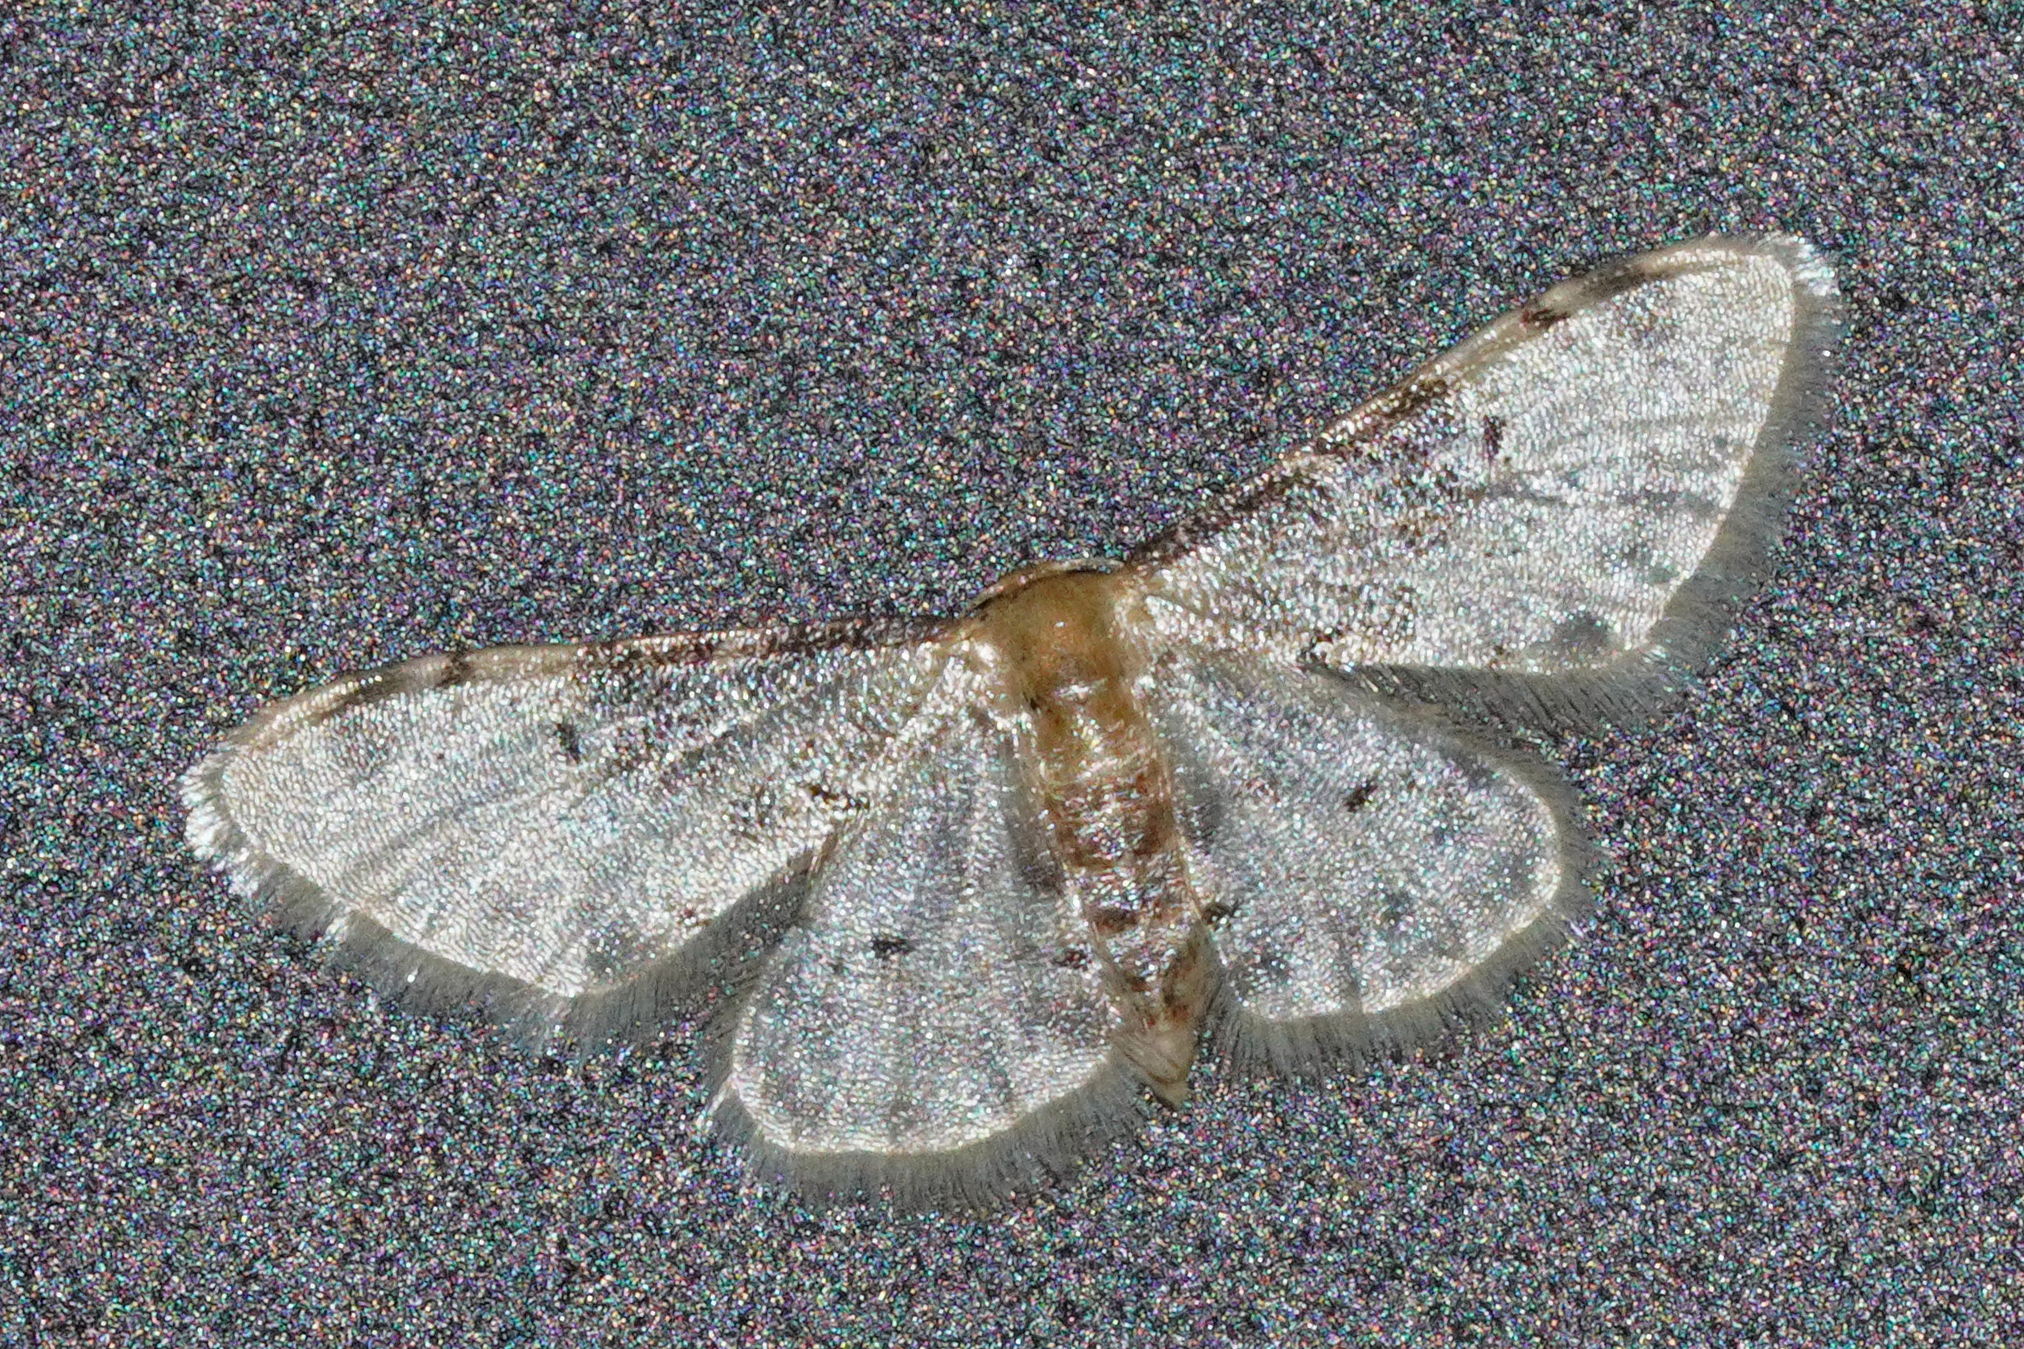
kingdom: Animalia
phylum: Arthropoda
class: Insecta
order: Lepidoptera
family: Geometridae
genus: Idaea
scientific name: Idaea filicata
